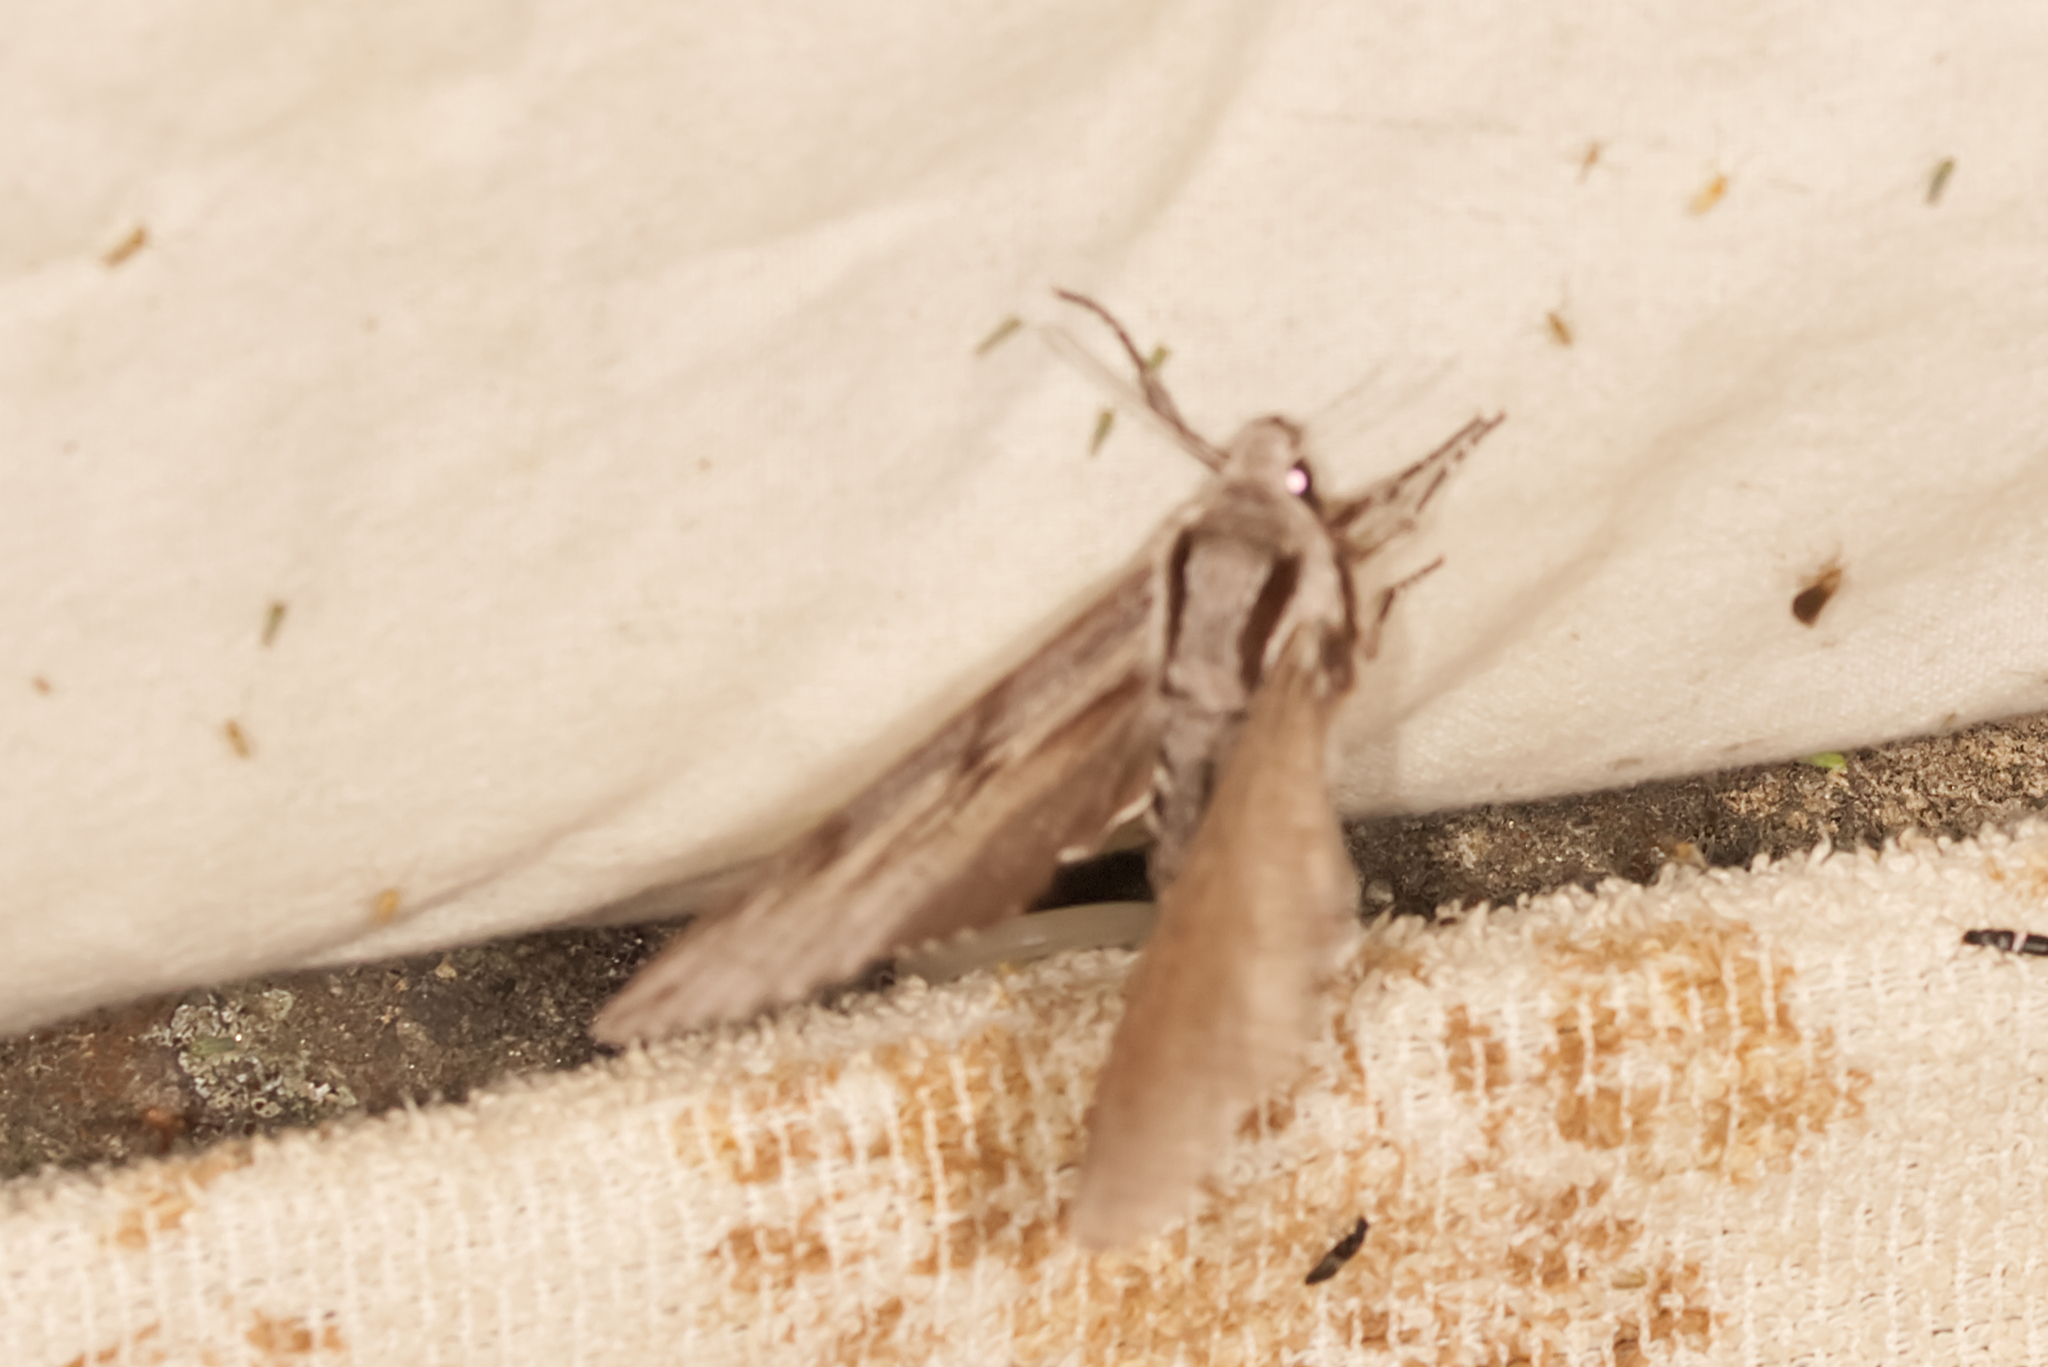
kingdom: Animalia
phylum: Arthropoda
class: Insecta
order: Lepidoptera
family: Sphingidae
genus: Sphinx
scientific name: Sphinx pinastri
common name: Pine hawk-moth
